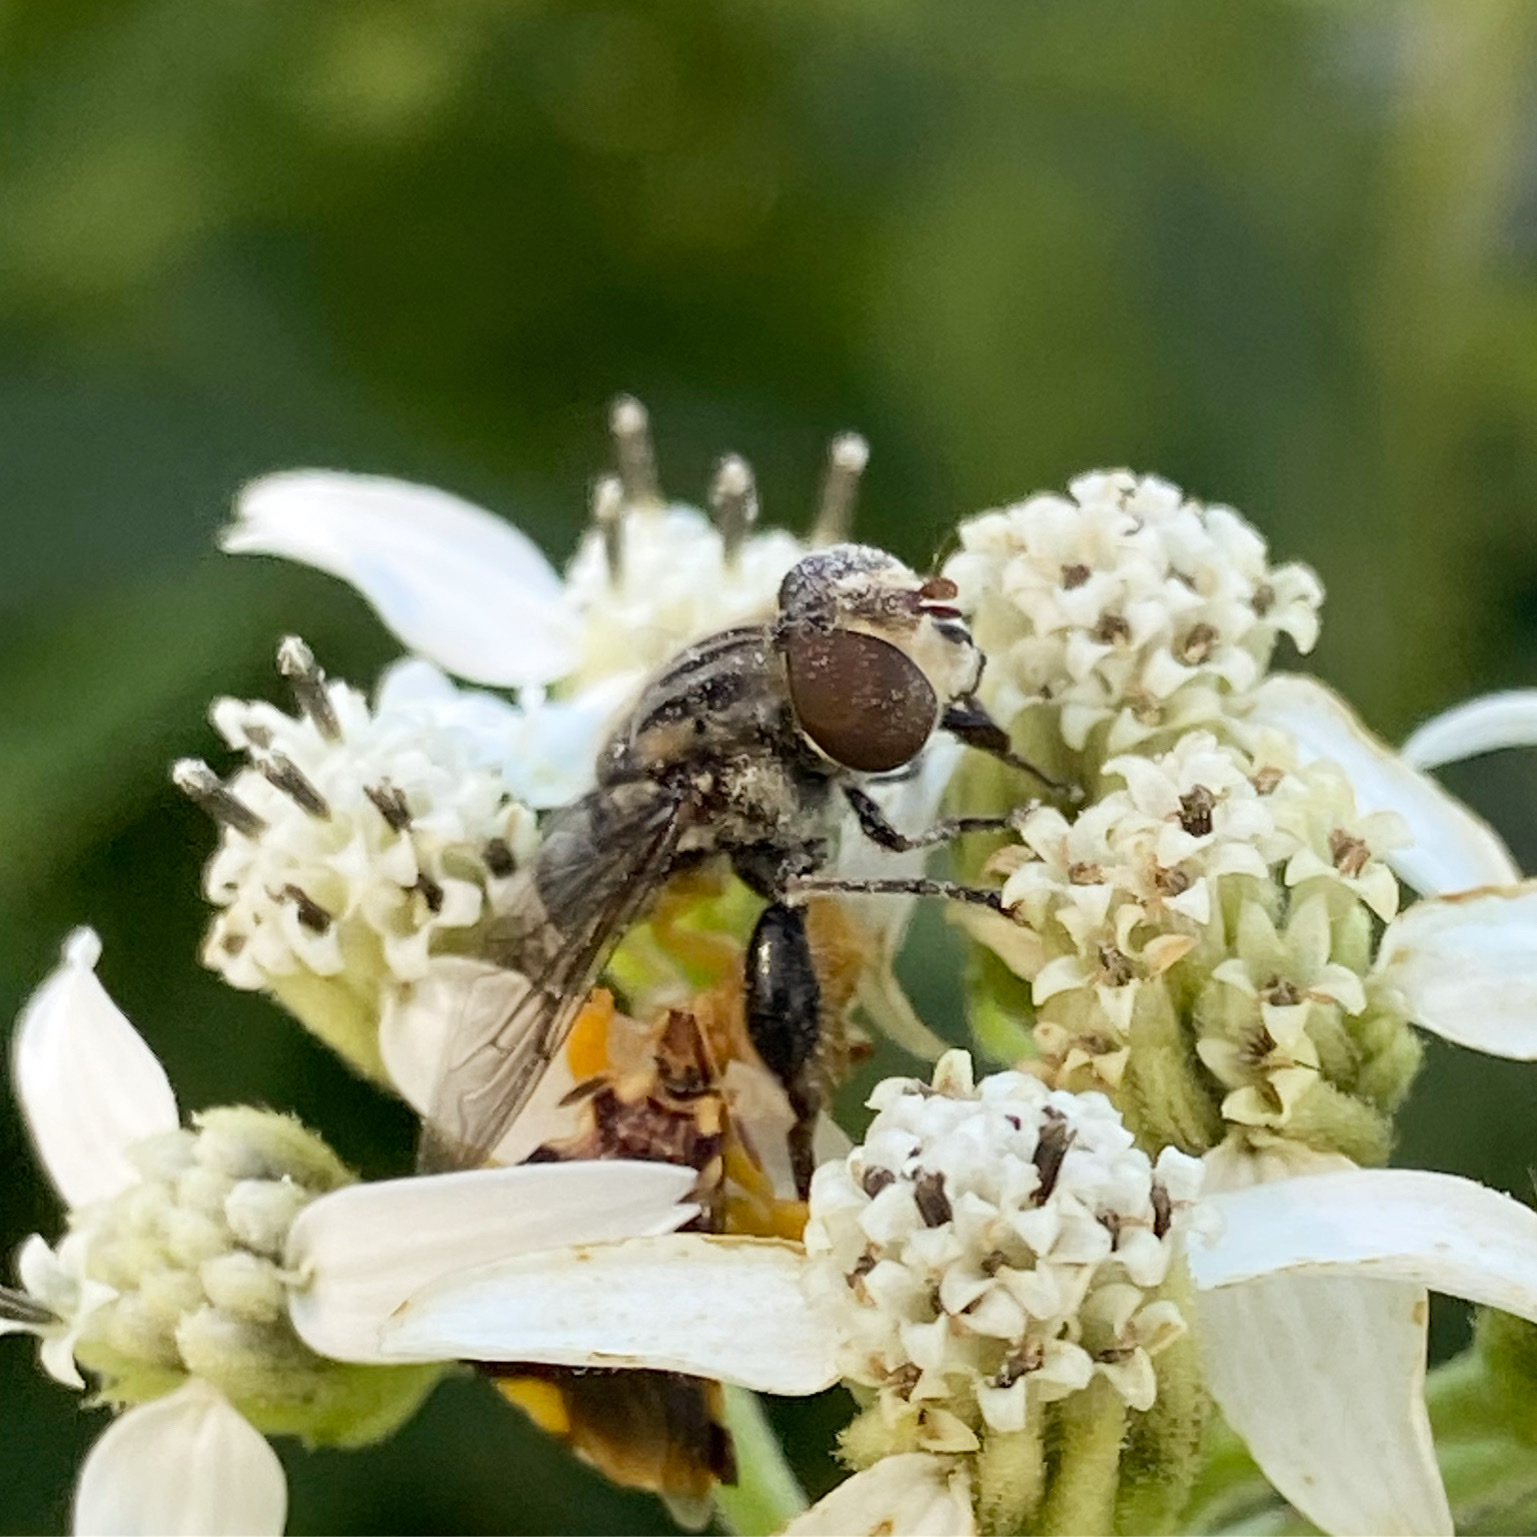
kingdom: Animalia
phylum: Arthropoda
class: Insecta
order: Diptera
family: Syrphidae
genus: Palpada
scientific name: Palpada furcata
